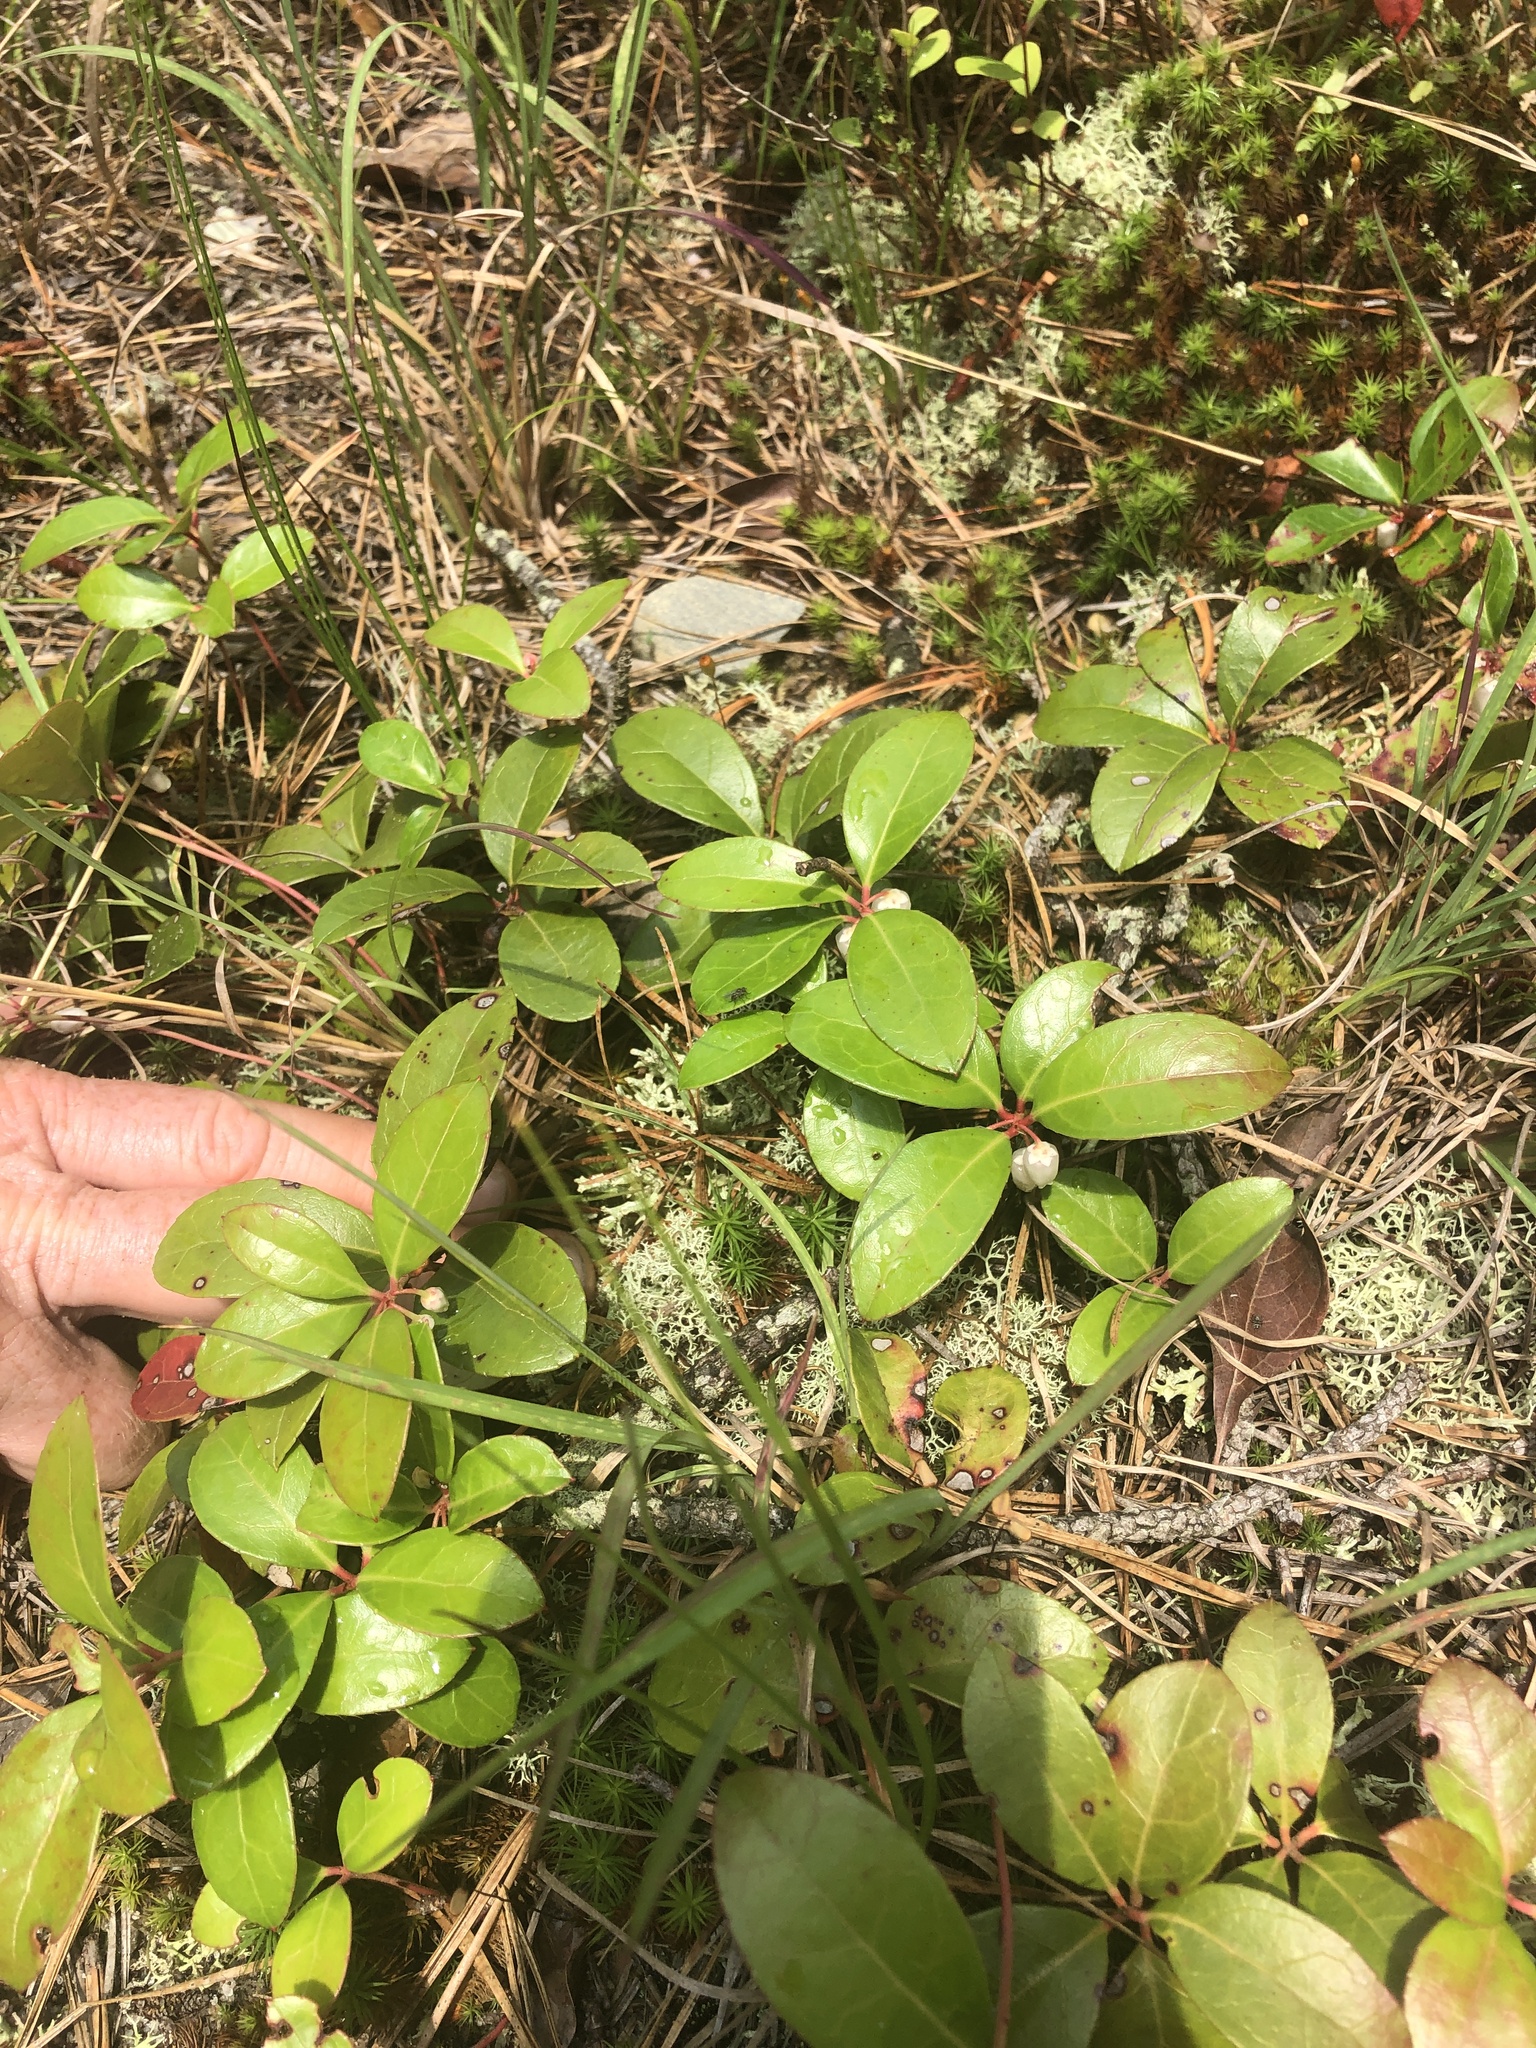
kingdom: Plantae
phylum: Tracheophyta
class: Magnoliopsida
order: Ericales
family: Ericaceae
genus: Gaultheria
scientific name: Gaultheria procumbens
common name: Checkerberry
